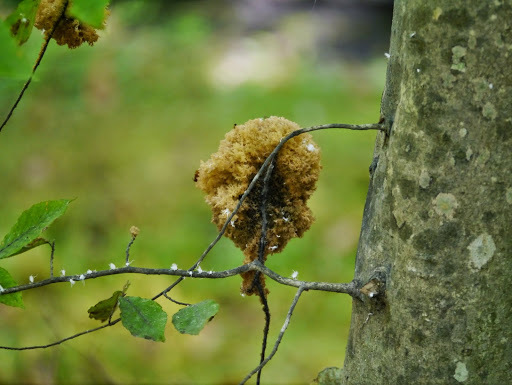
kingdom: Fungi
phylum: Ascomycota
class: Dothideomycetes
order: Capnodiales
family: Capnodiaceae
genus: Scorias
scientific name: Scorias spongiosa
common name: Black sooty mold
